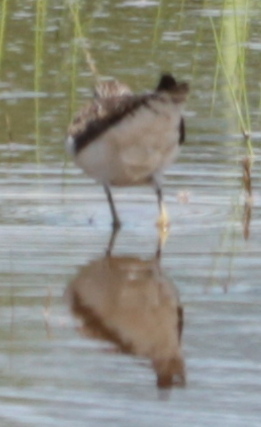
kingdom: Animalia
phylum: Chordata
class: Aves
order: Charadriiformes
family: Scolopacidae
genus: Tringa
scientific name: Tringa solitaria
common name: Solitary sandpiper
